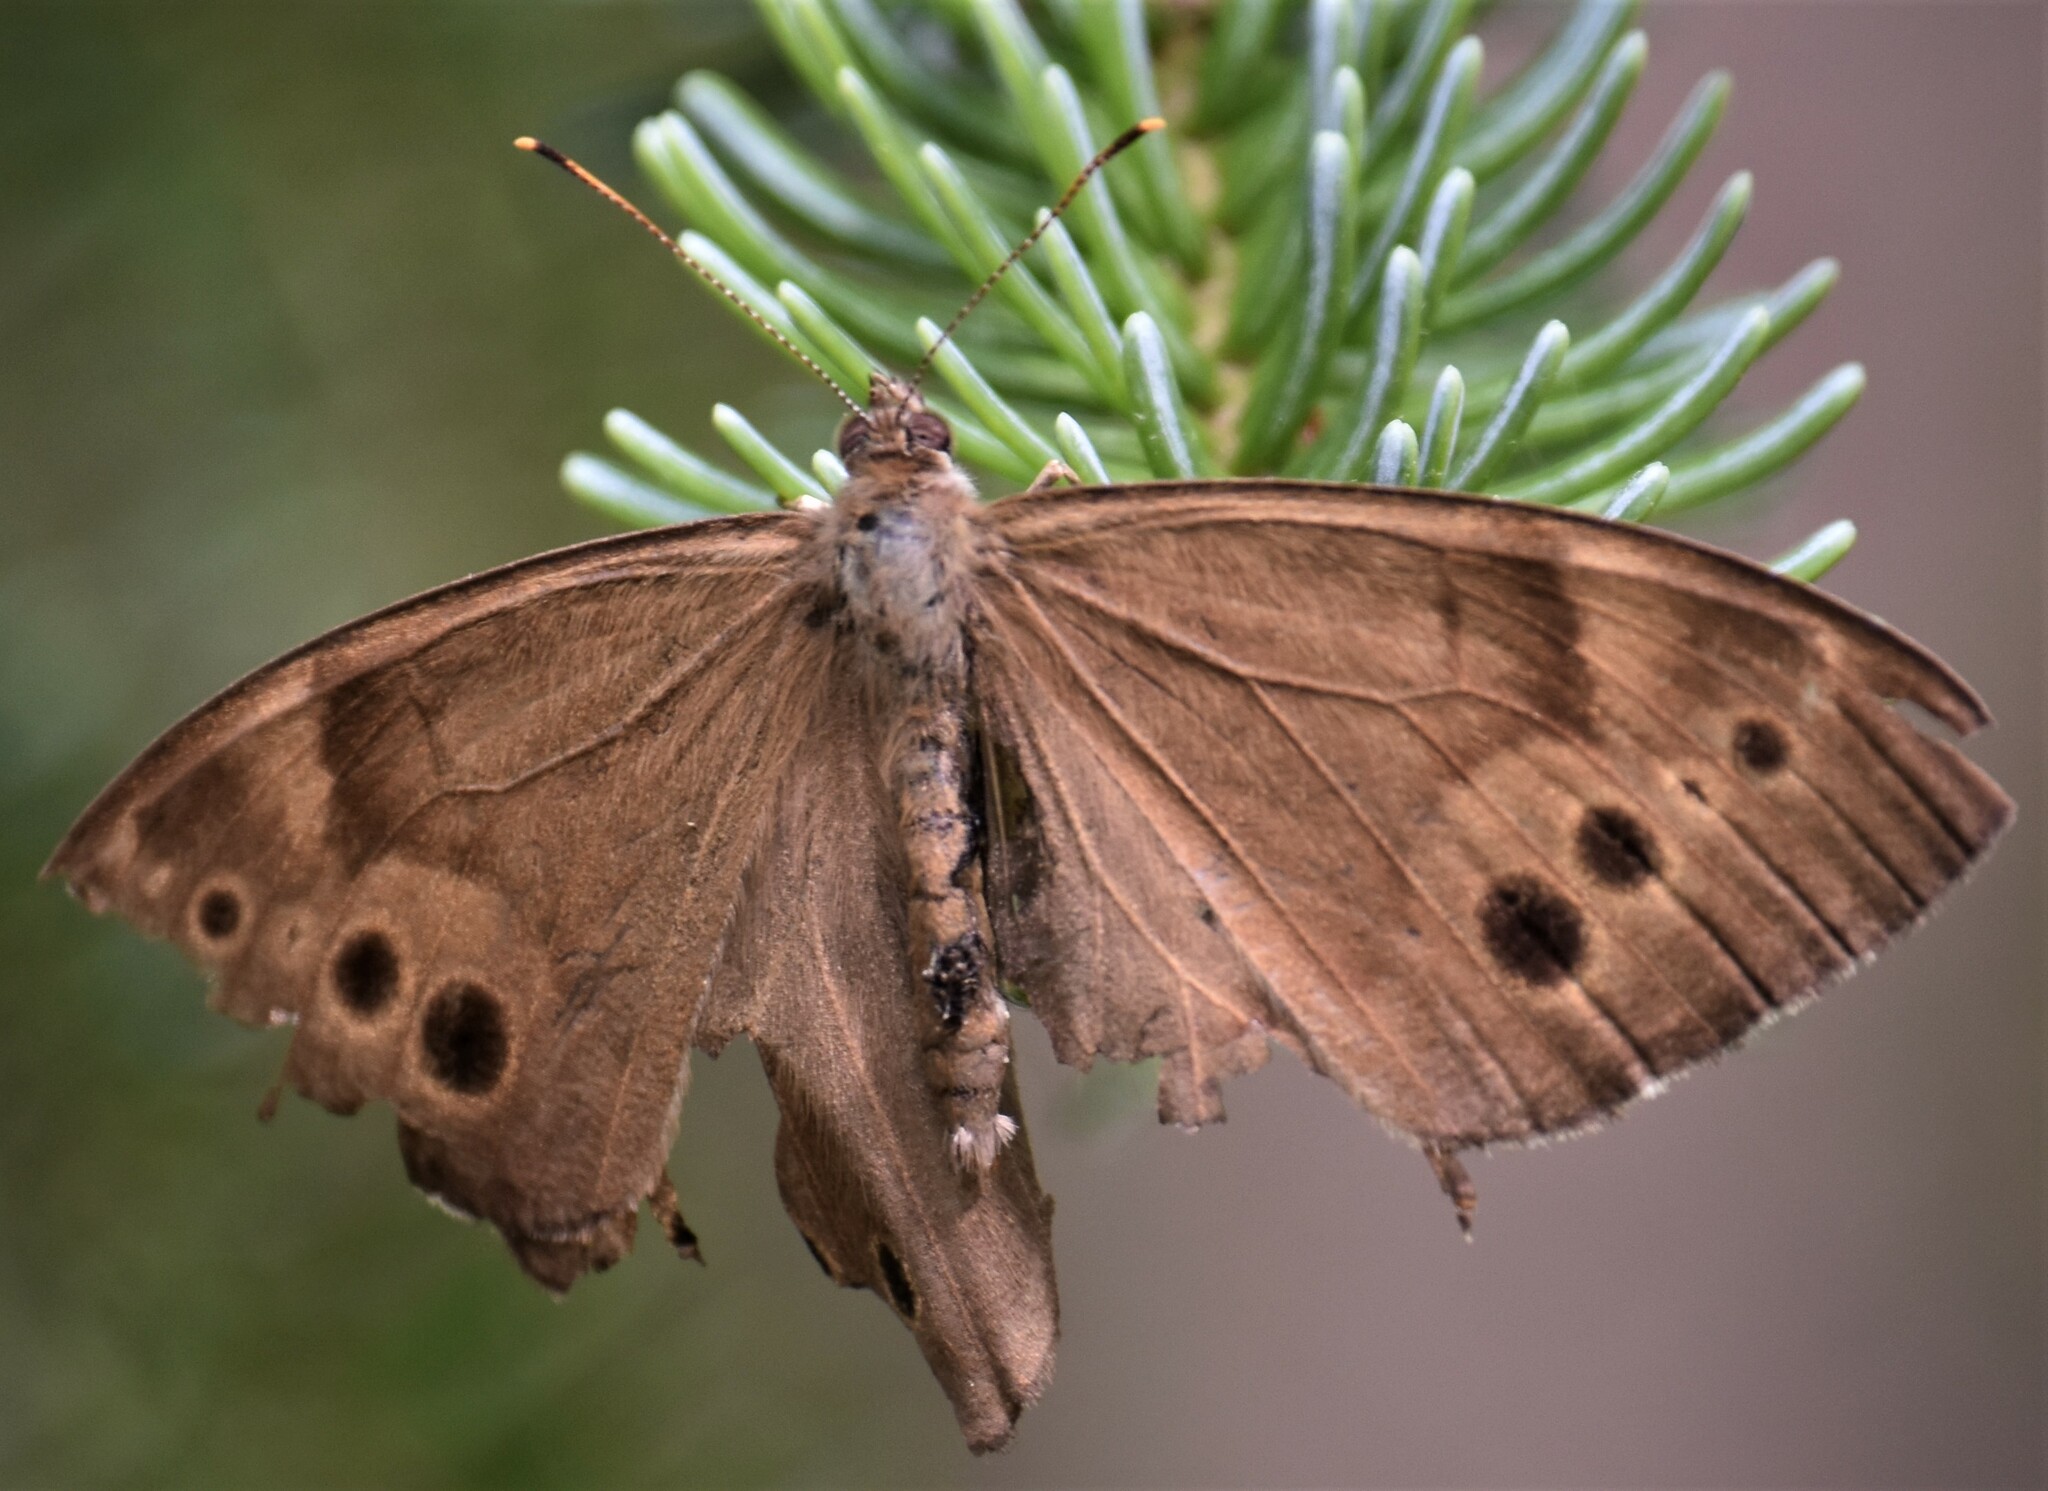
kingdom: Animalia
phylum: Arthropoda
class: Insecta
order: Lepidoptera
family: Nymphalidae
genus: Lethe
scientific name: Lethe anthedon
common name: Northern pearly-eye
